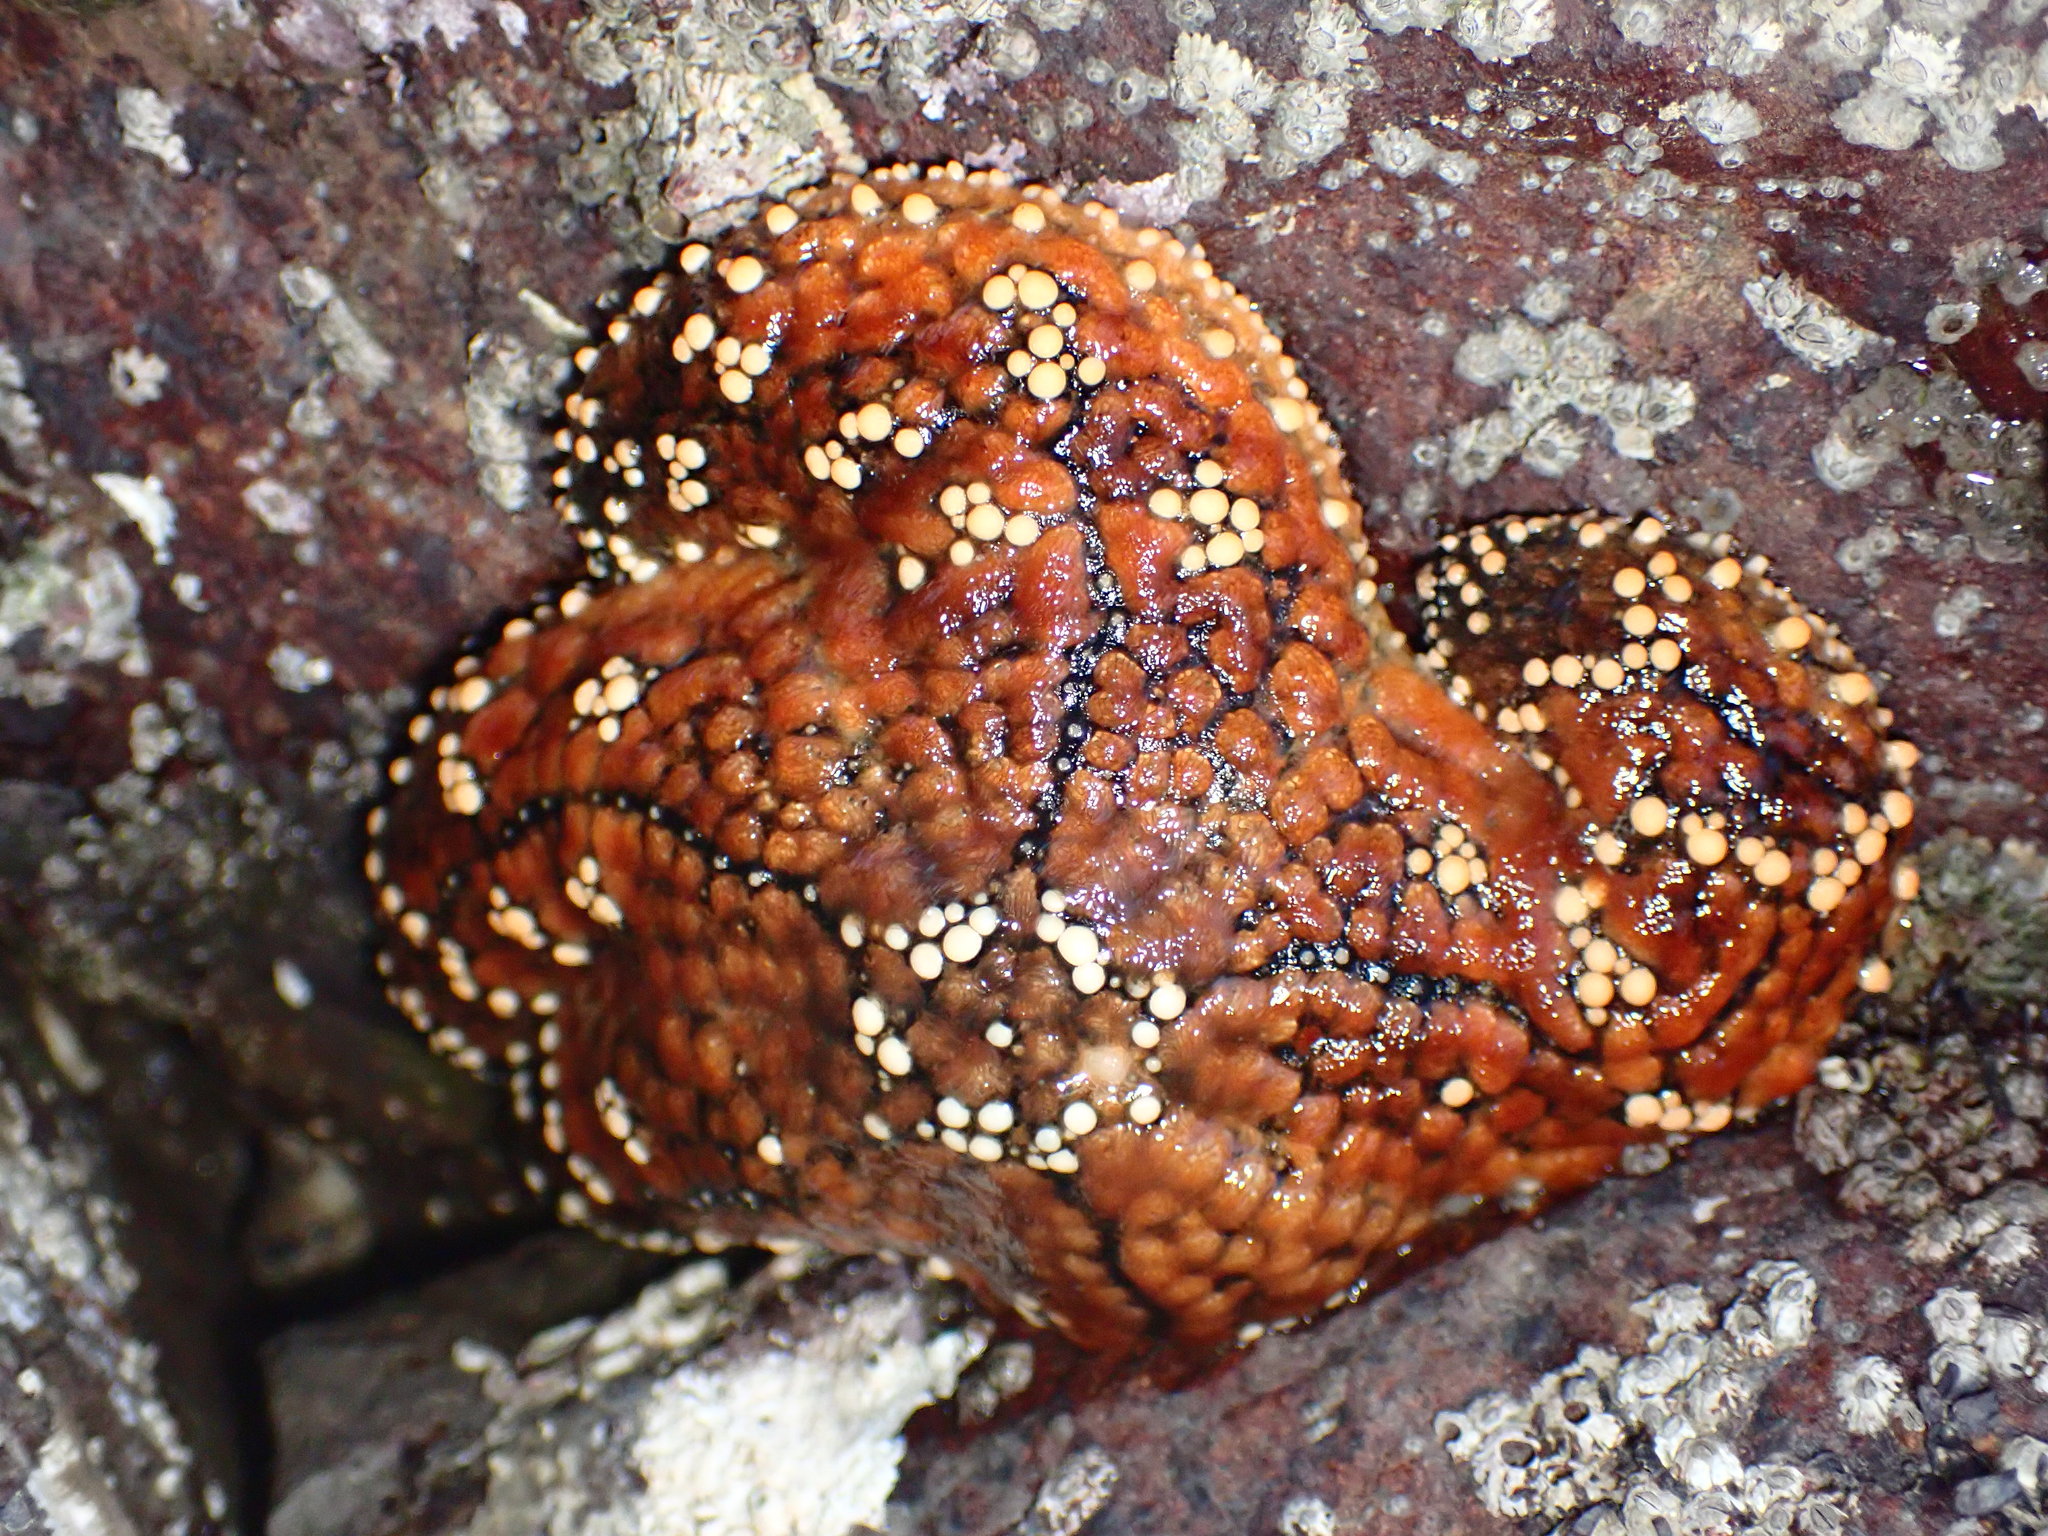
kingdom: Animalia
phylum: Echinodermata
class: Asteroidea
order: Forcipulatida
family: Asteriidae
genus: Pisaster
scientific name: Pisaster ochraceus
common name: Ochre stars
